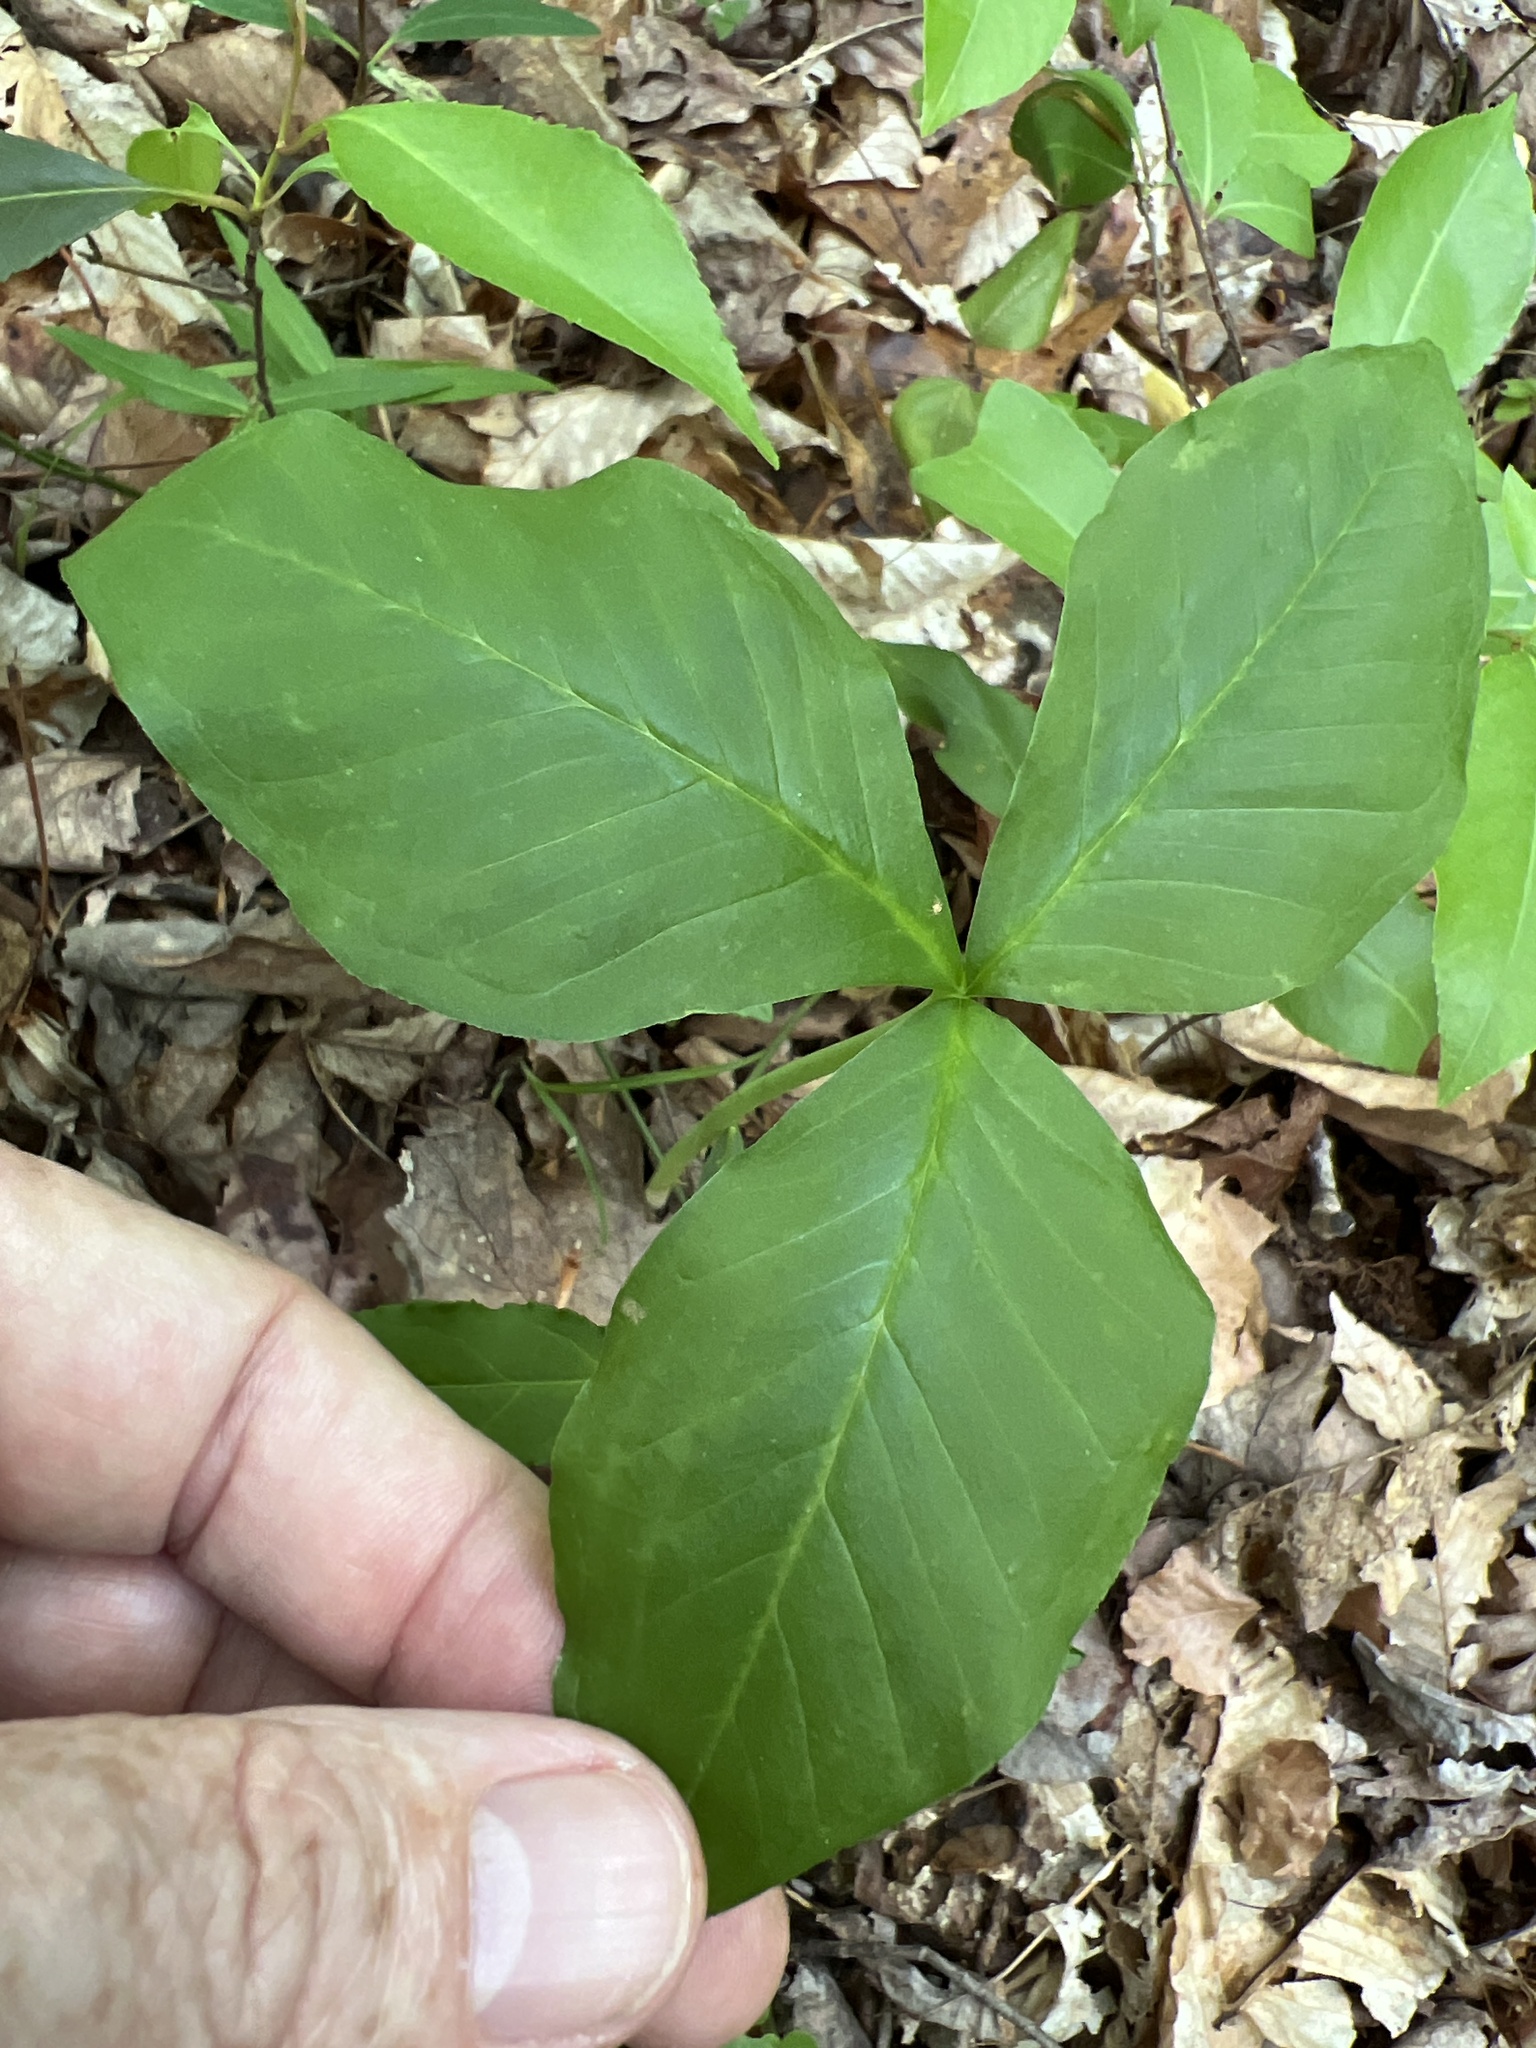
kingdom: Plantae
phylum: Tracheophyta
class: Liliopsida
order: Alismatales
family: Araceae
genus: Arisaema
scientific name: Arisaema triphyllum
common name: Jack-in-the-pulpit
